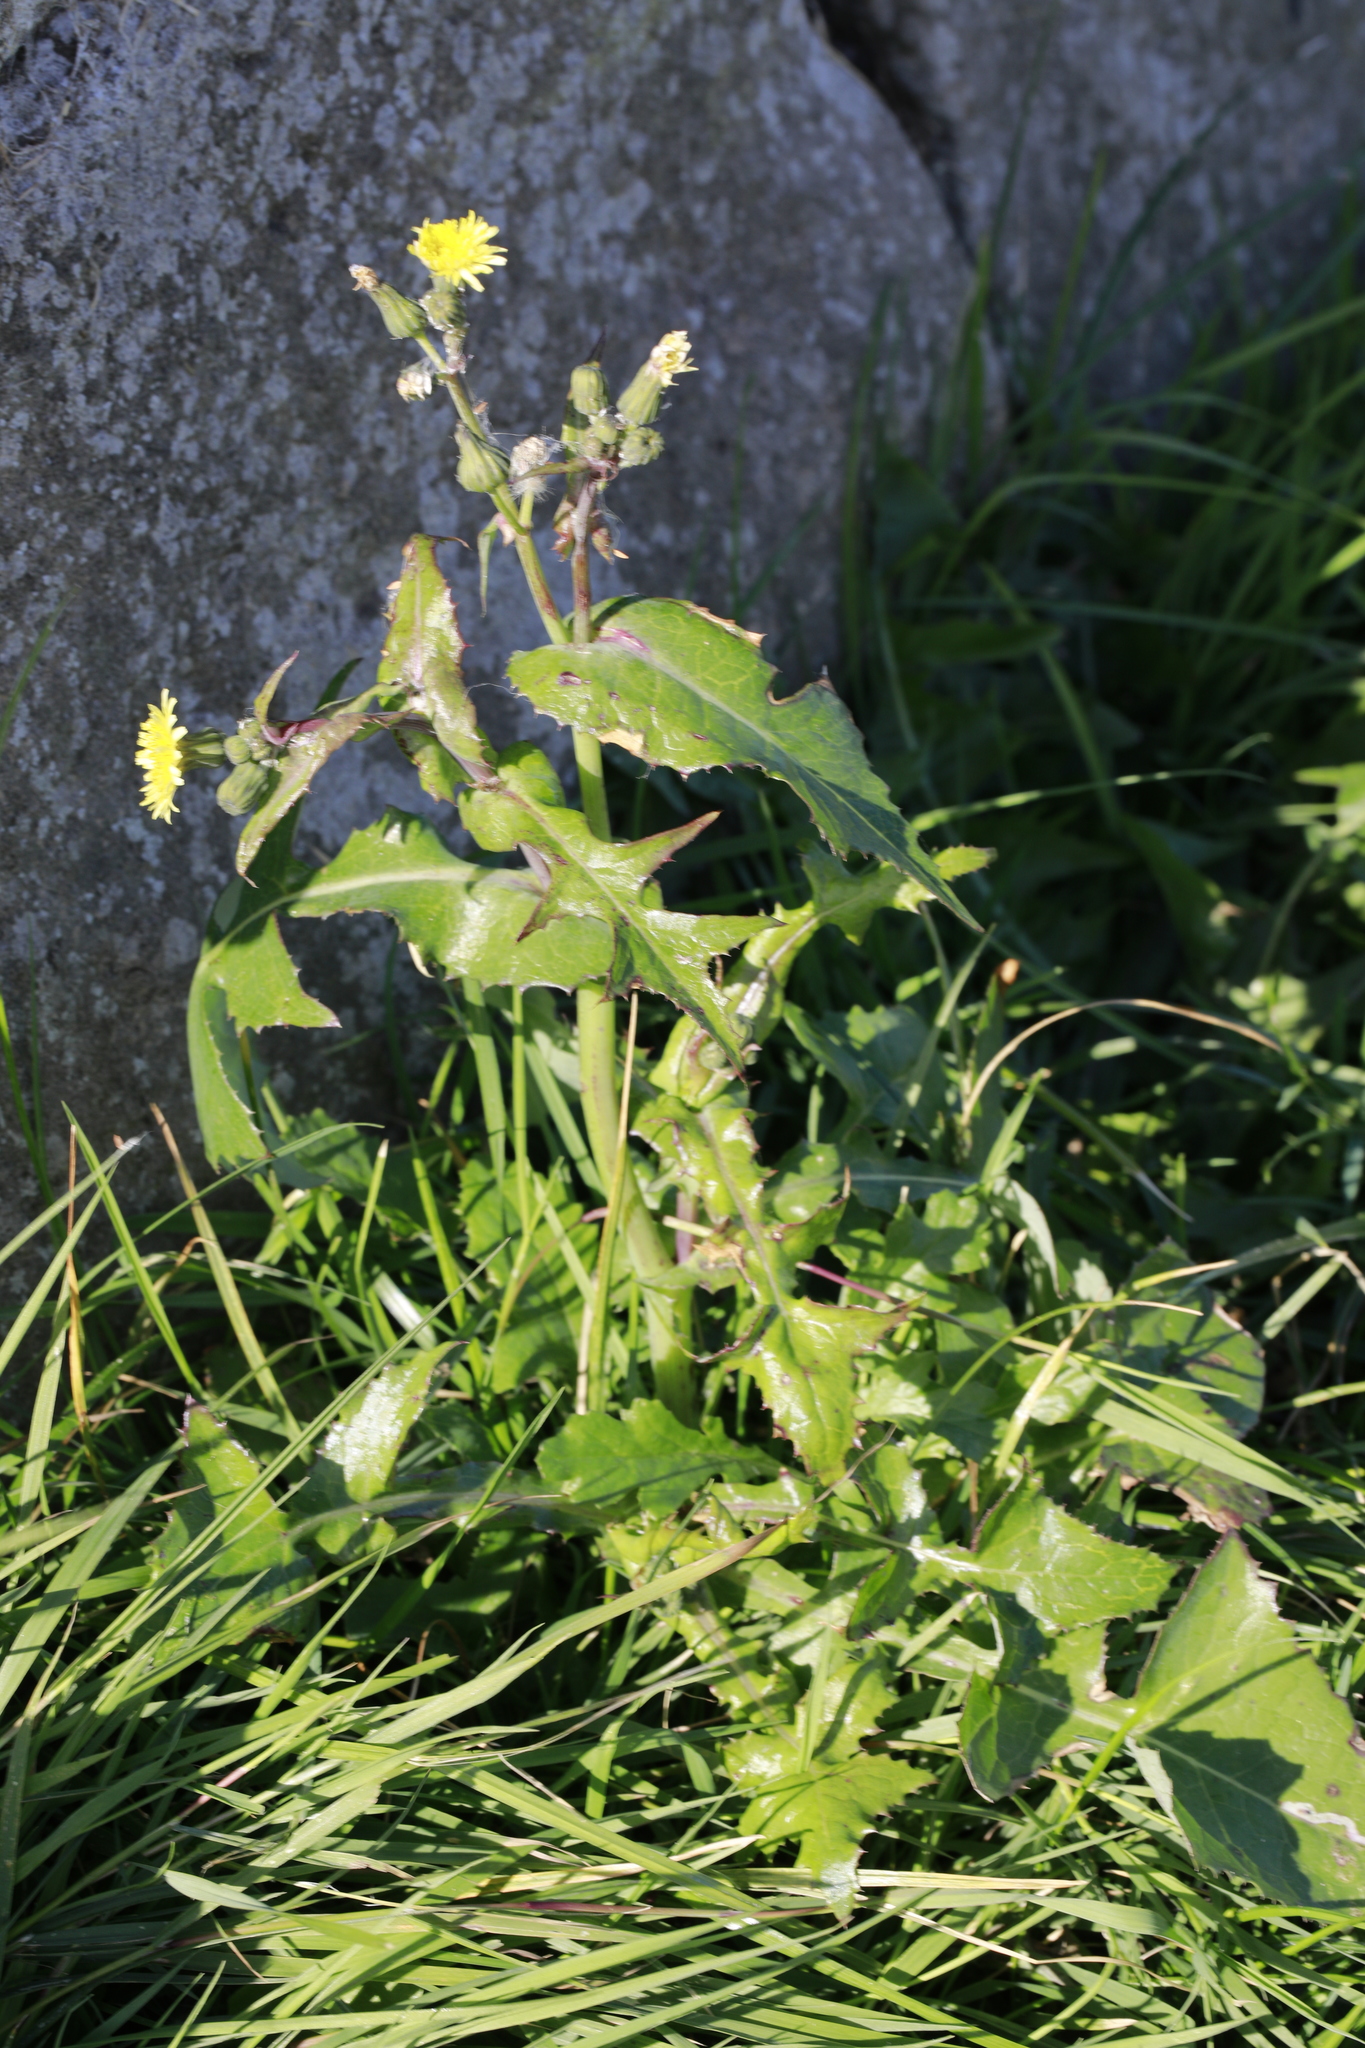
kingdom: Plantae
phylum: Tracheophyta
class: Magnoliopsida
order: Asterales
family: Asteraceae
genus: Sonchus
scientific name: Sonchus oleraceus
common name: Common sowthistle
